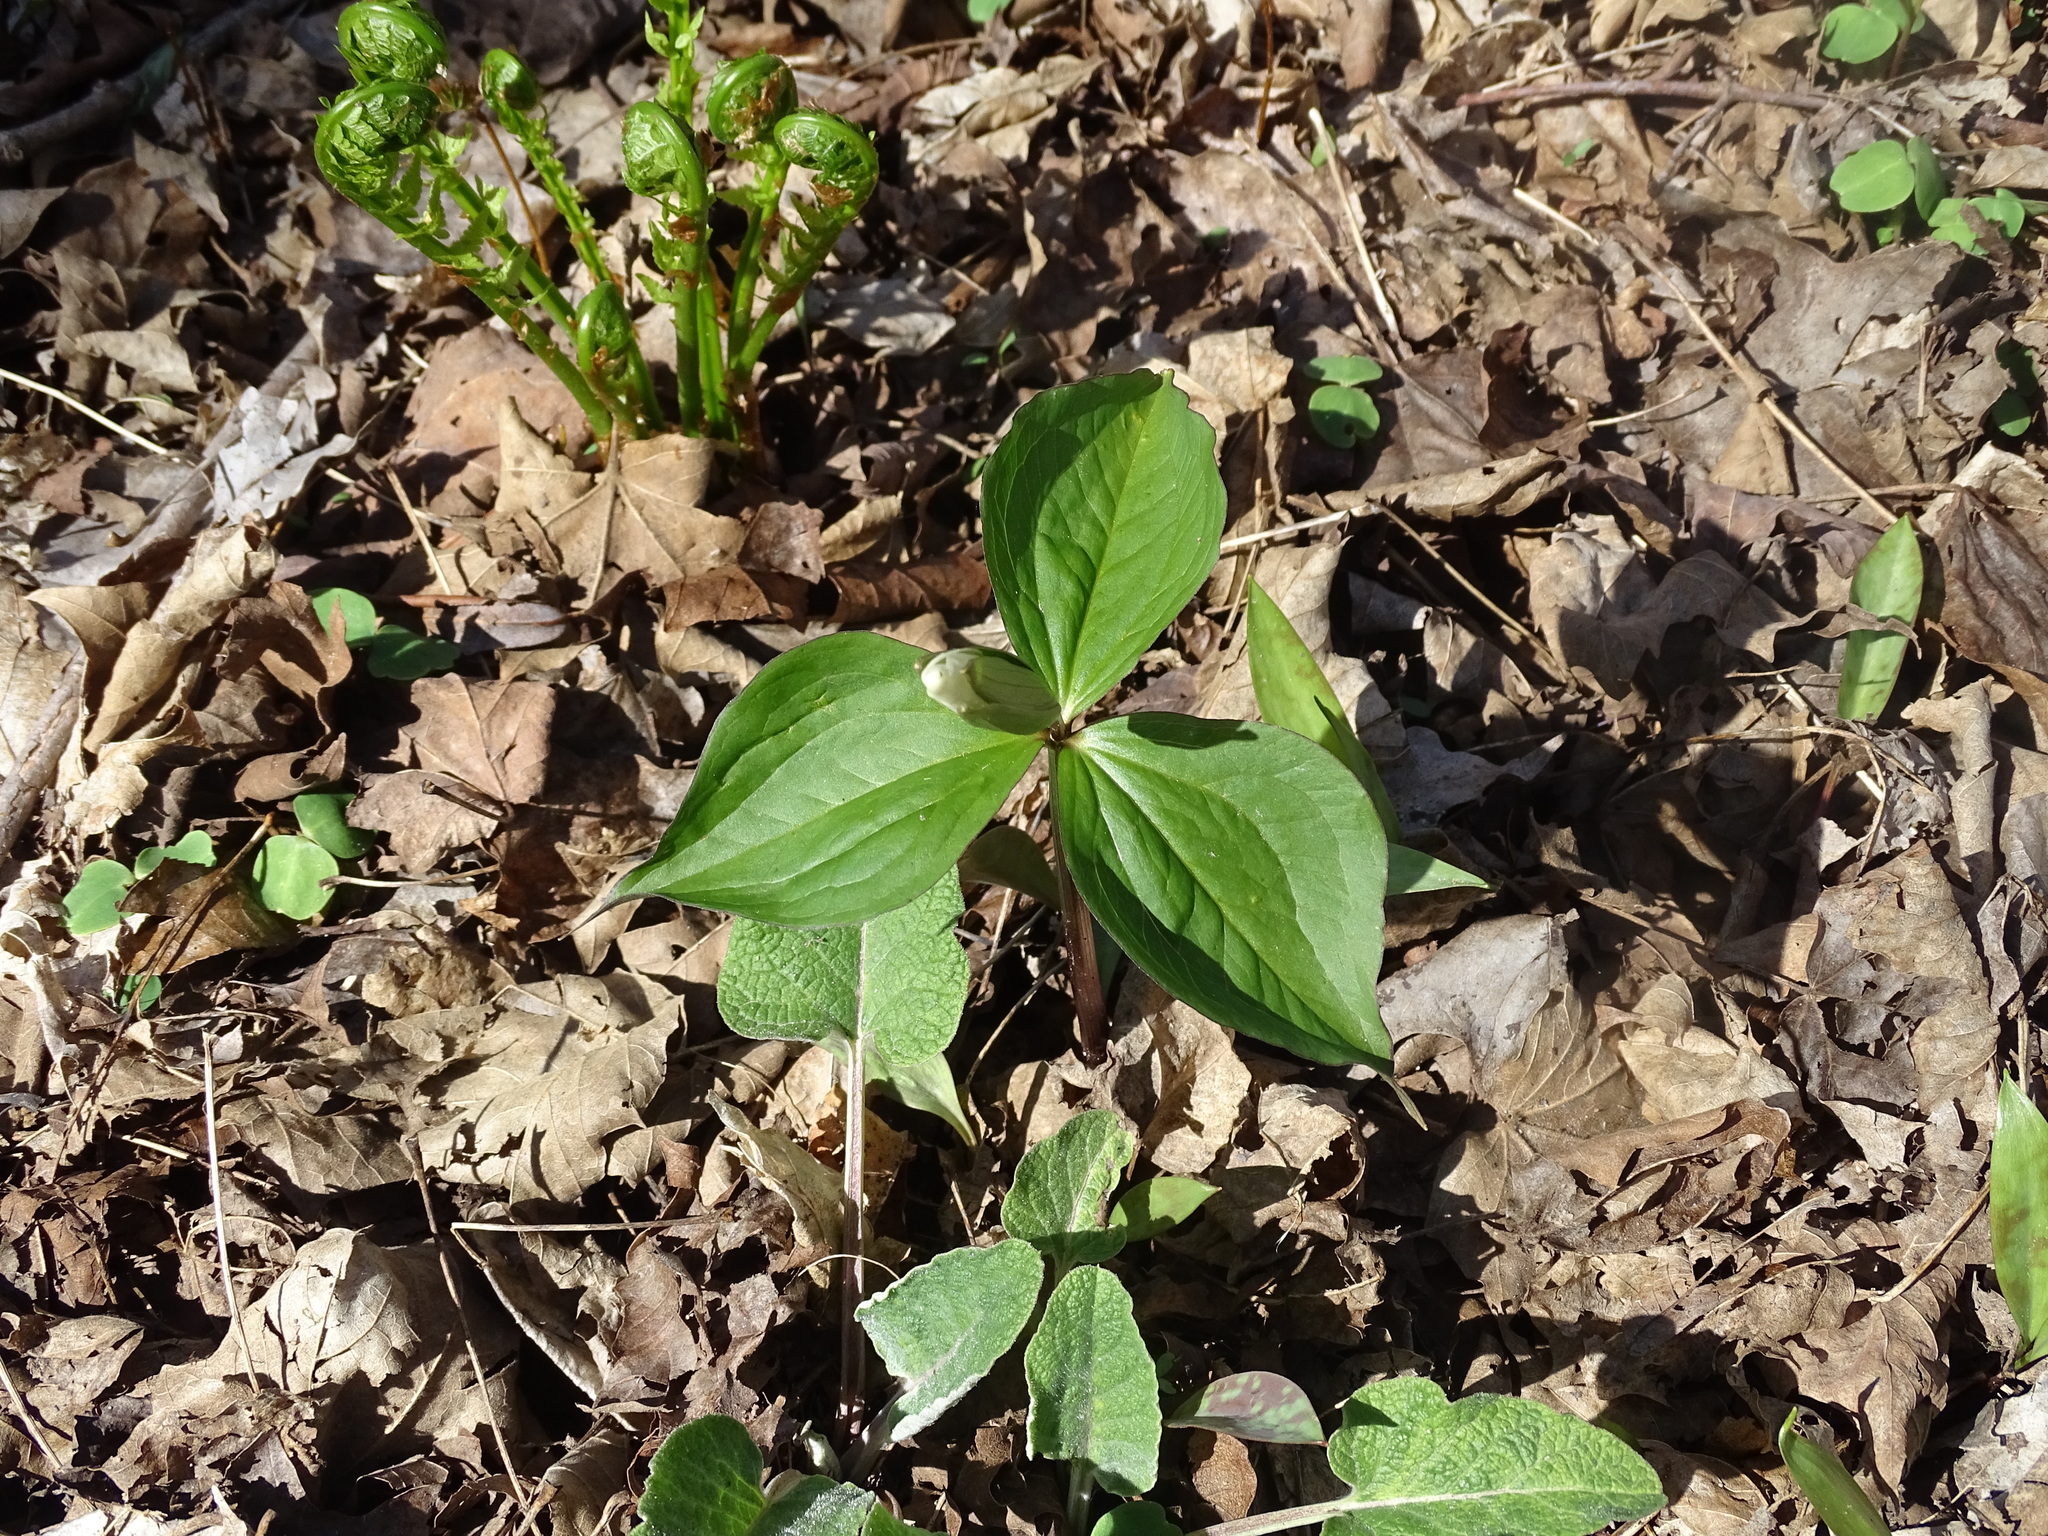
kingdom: Plantae
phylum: Tracheophyta
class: Liliopsida
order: Liliales
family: Melanthiaceae
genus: Trillium
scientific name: Trillium grandiflorum
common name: Great white trillium
